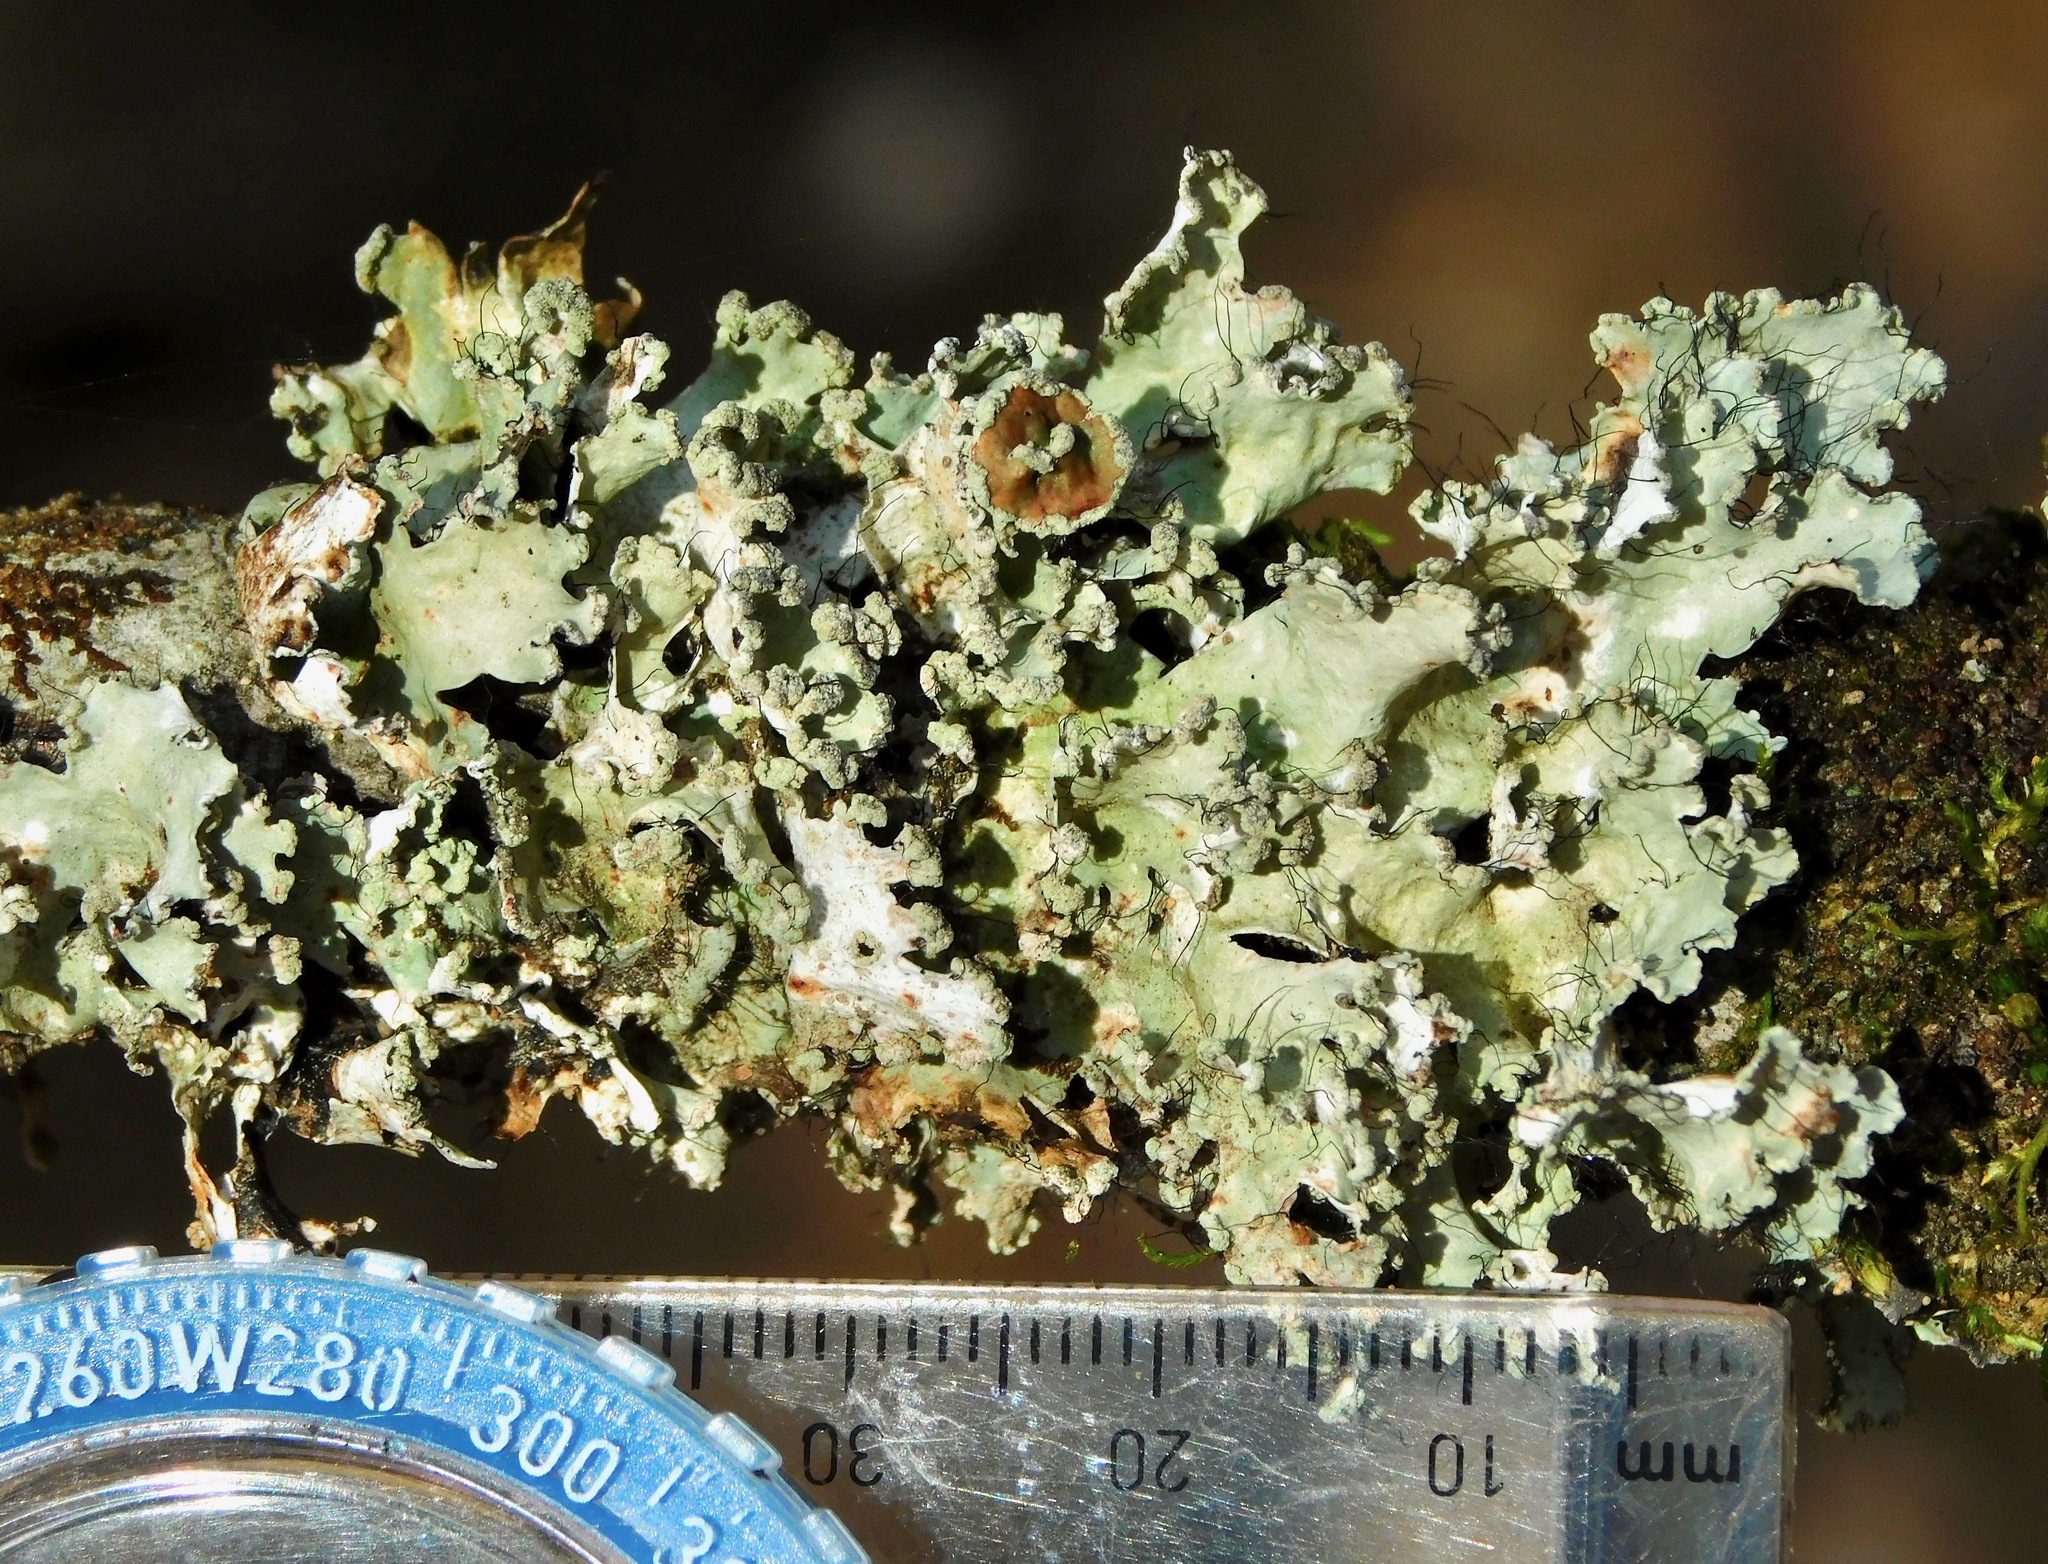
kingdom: Fungi
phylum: Ascomycota
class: Lecanoromycetes
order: Lecanorales
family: Parmeliaceae
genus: Parmotrema
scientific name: Parmotrema hypotropum
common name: Powdered ruffle lichen
